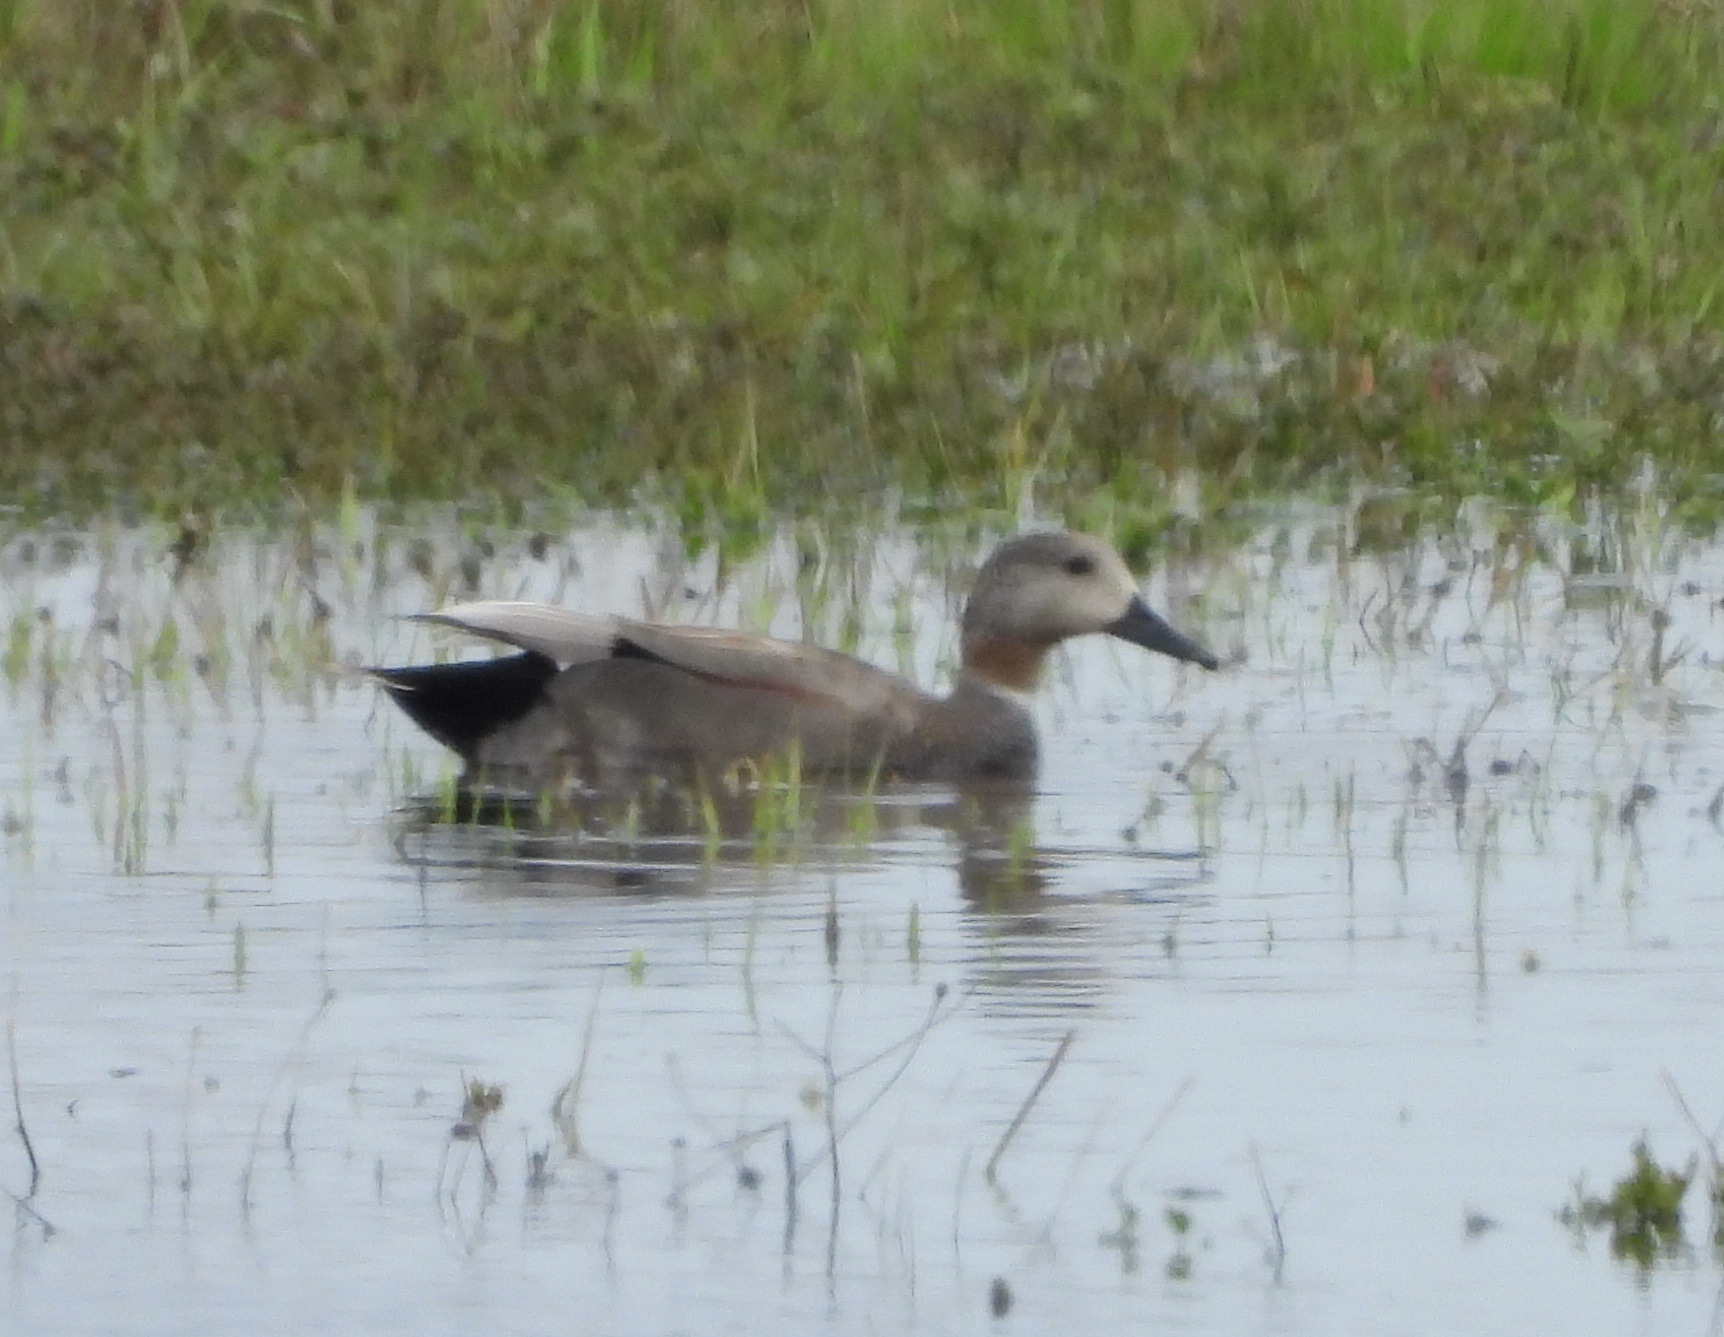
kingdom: Animalia
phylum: Chordata
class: Aves
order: Anseriformes
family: Anatidae
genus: Mareca
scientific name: Mareca strepera
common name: Gadwall
